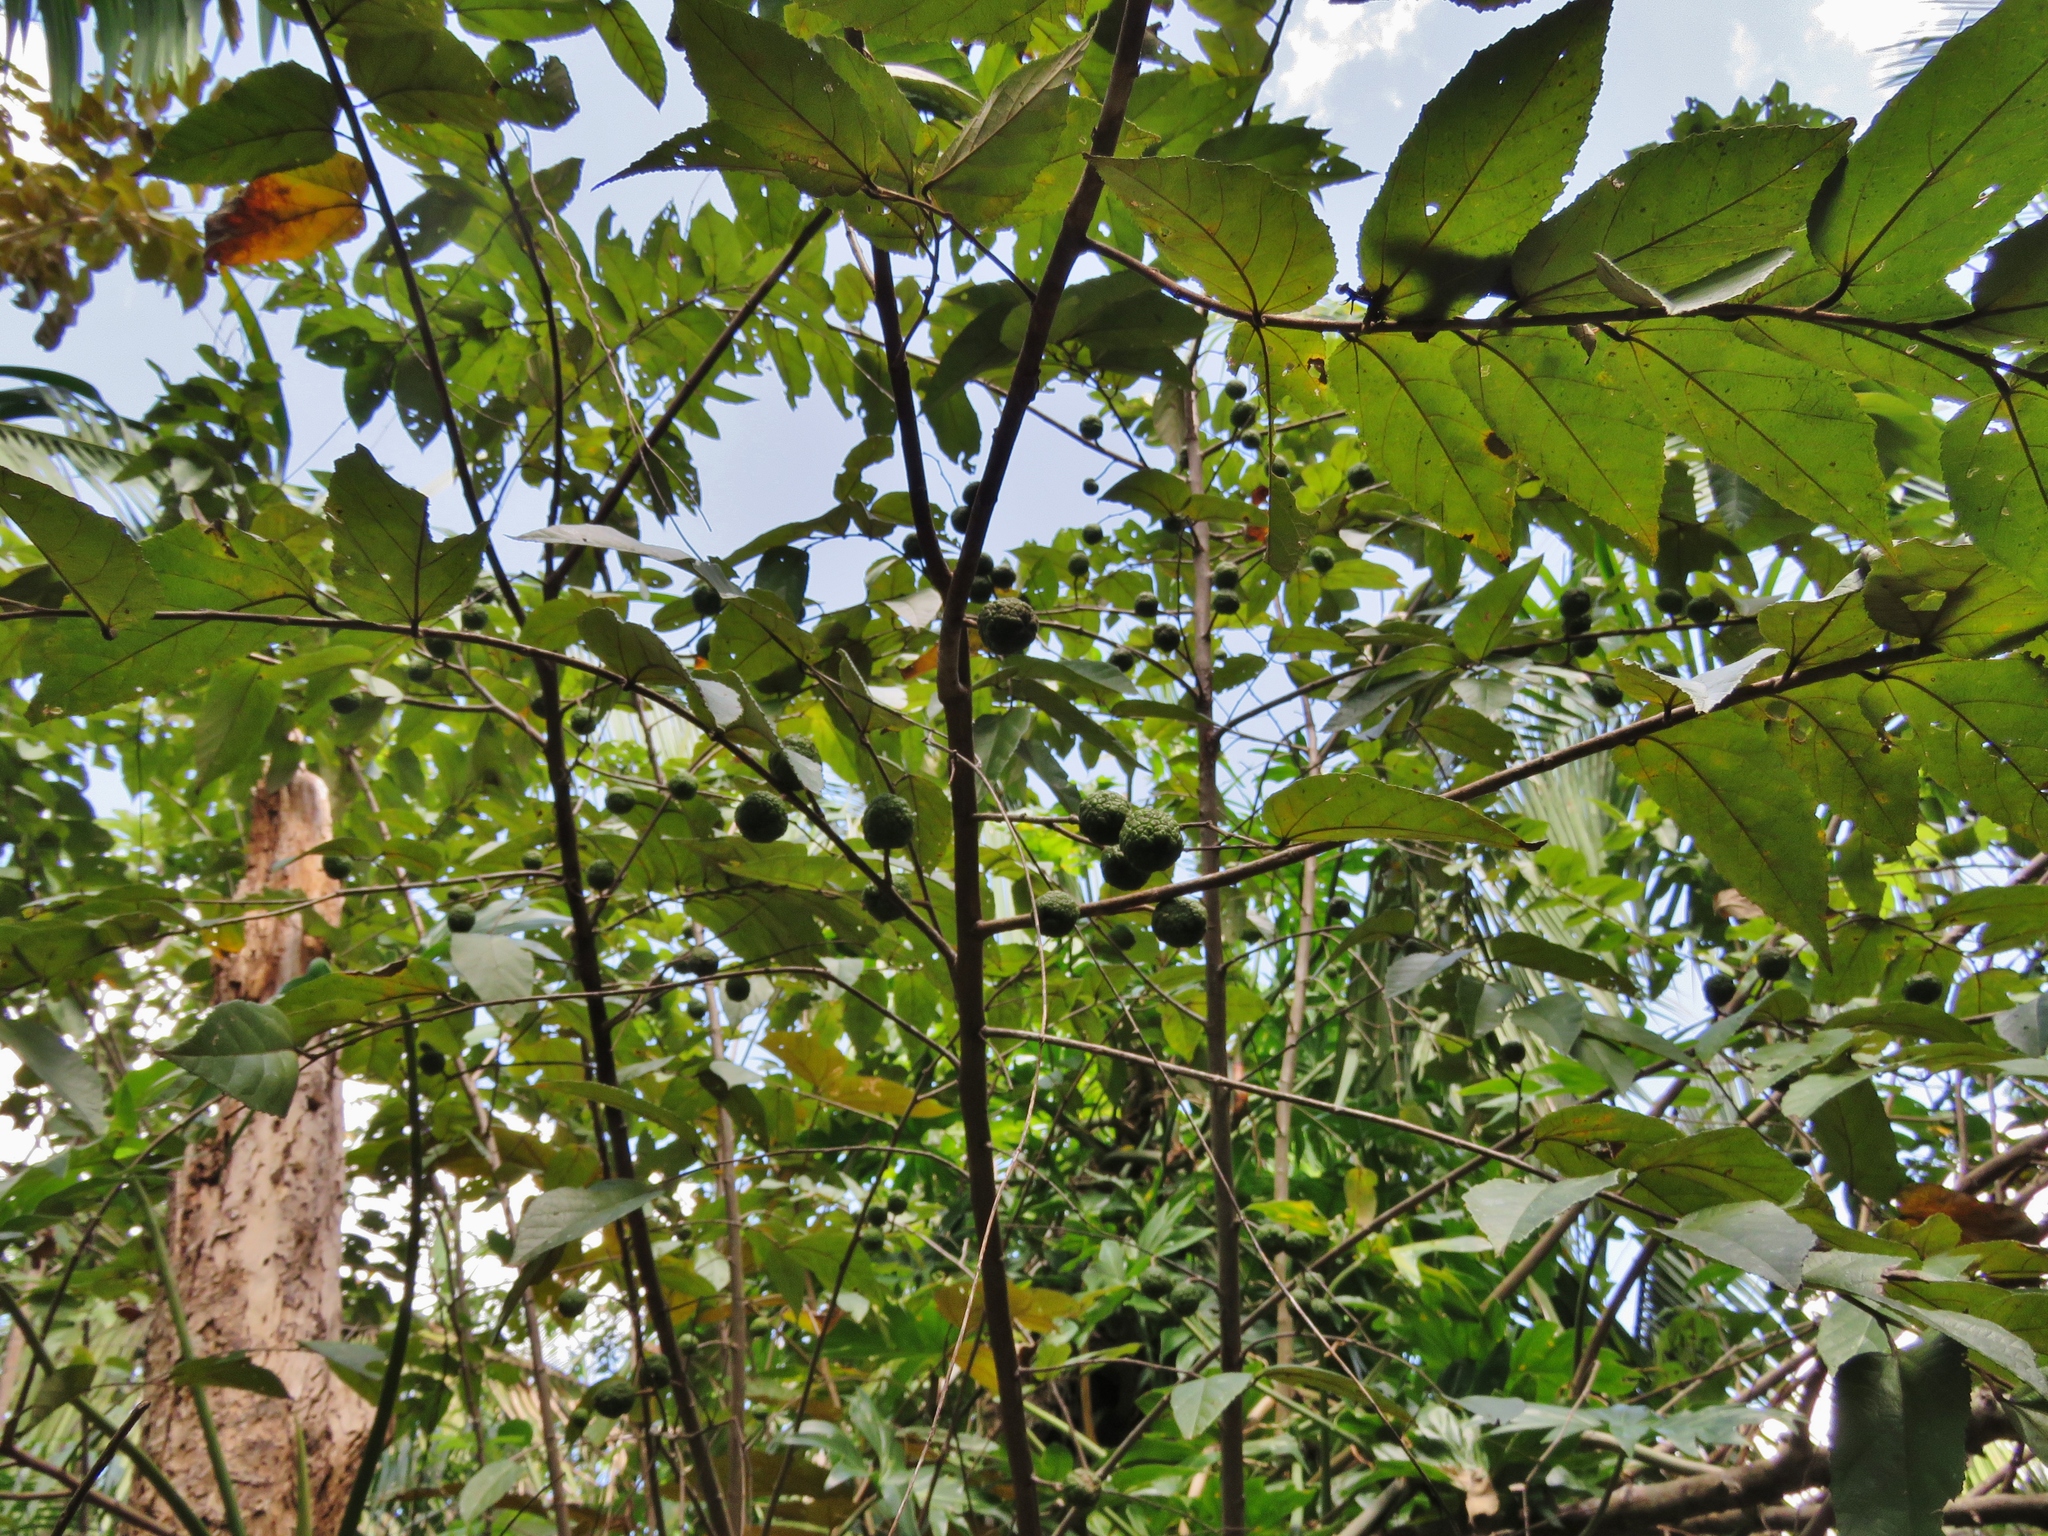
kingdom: Plantae
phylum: Tracheophyta
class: Magnoliopsida
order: Malvales
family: Malvaceae
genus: Guazuma
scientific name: Guazuma ulmifolia
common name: Bastard-cedar
